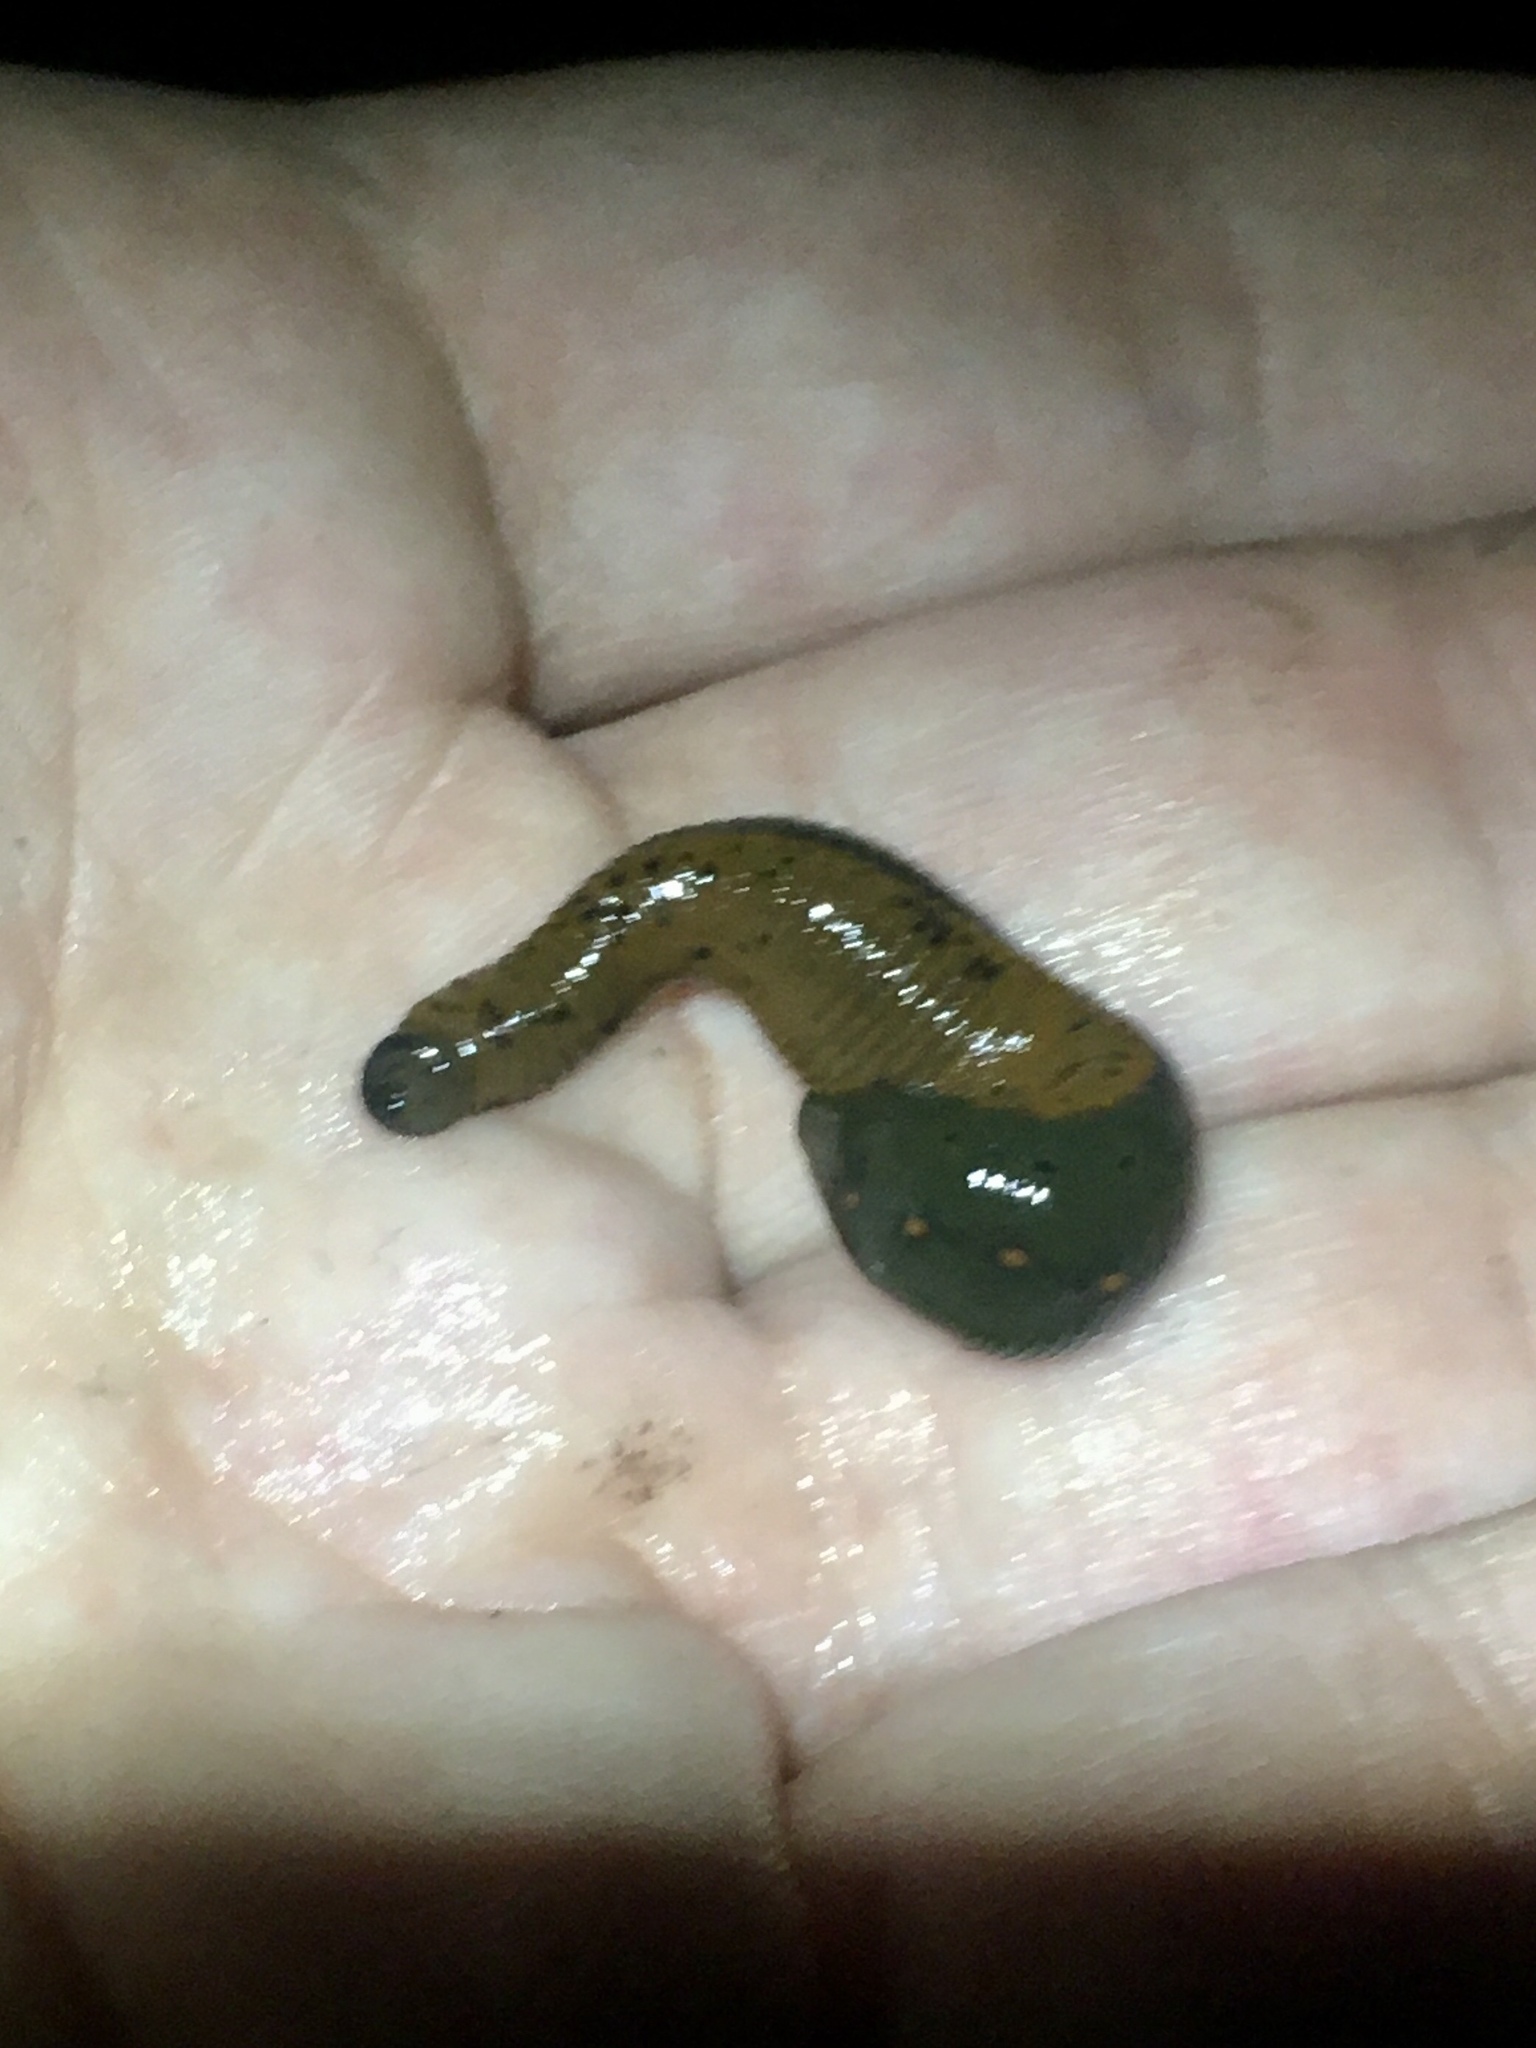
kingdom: Animalia
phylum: Annelida
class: Clitellata
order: Arhynchobdellida
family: Hirudinidae
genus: Macrobdella
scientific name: Macrobdella decora
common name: North american leech
